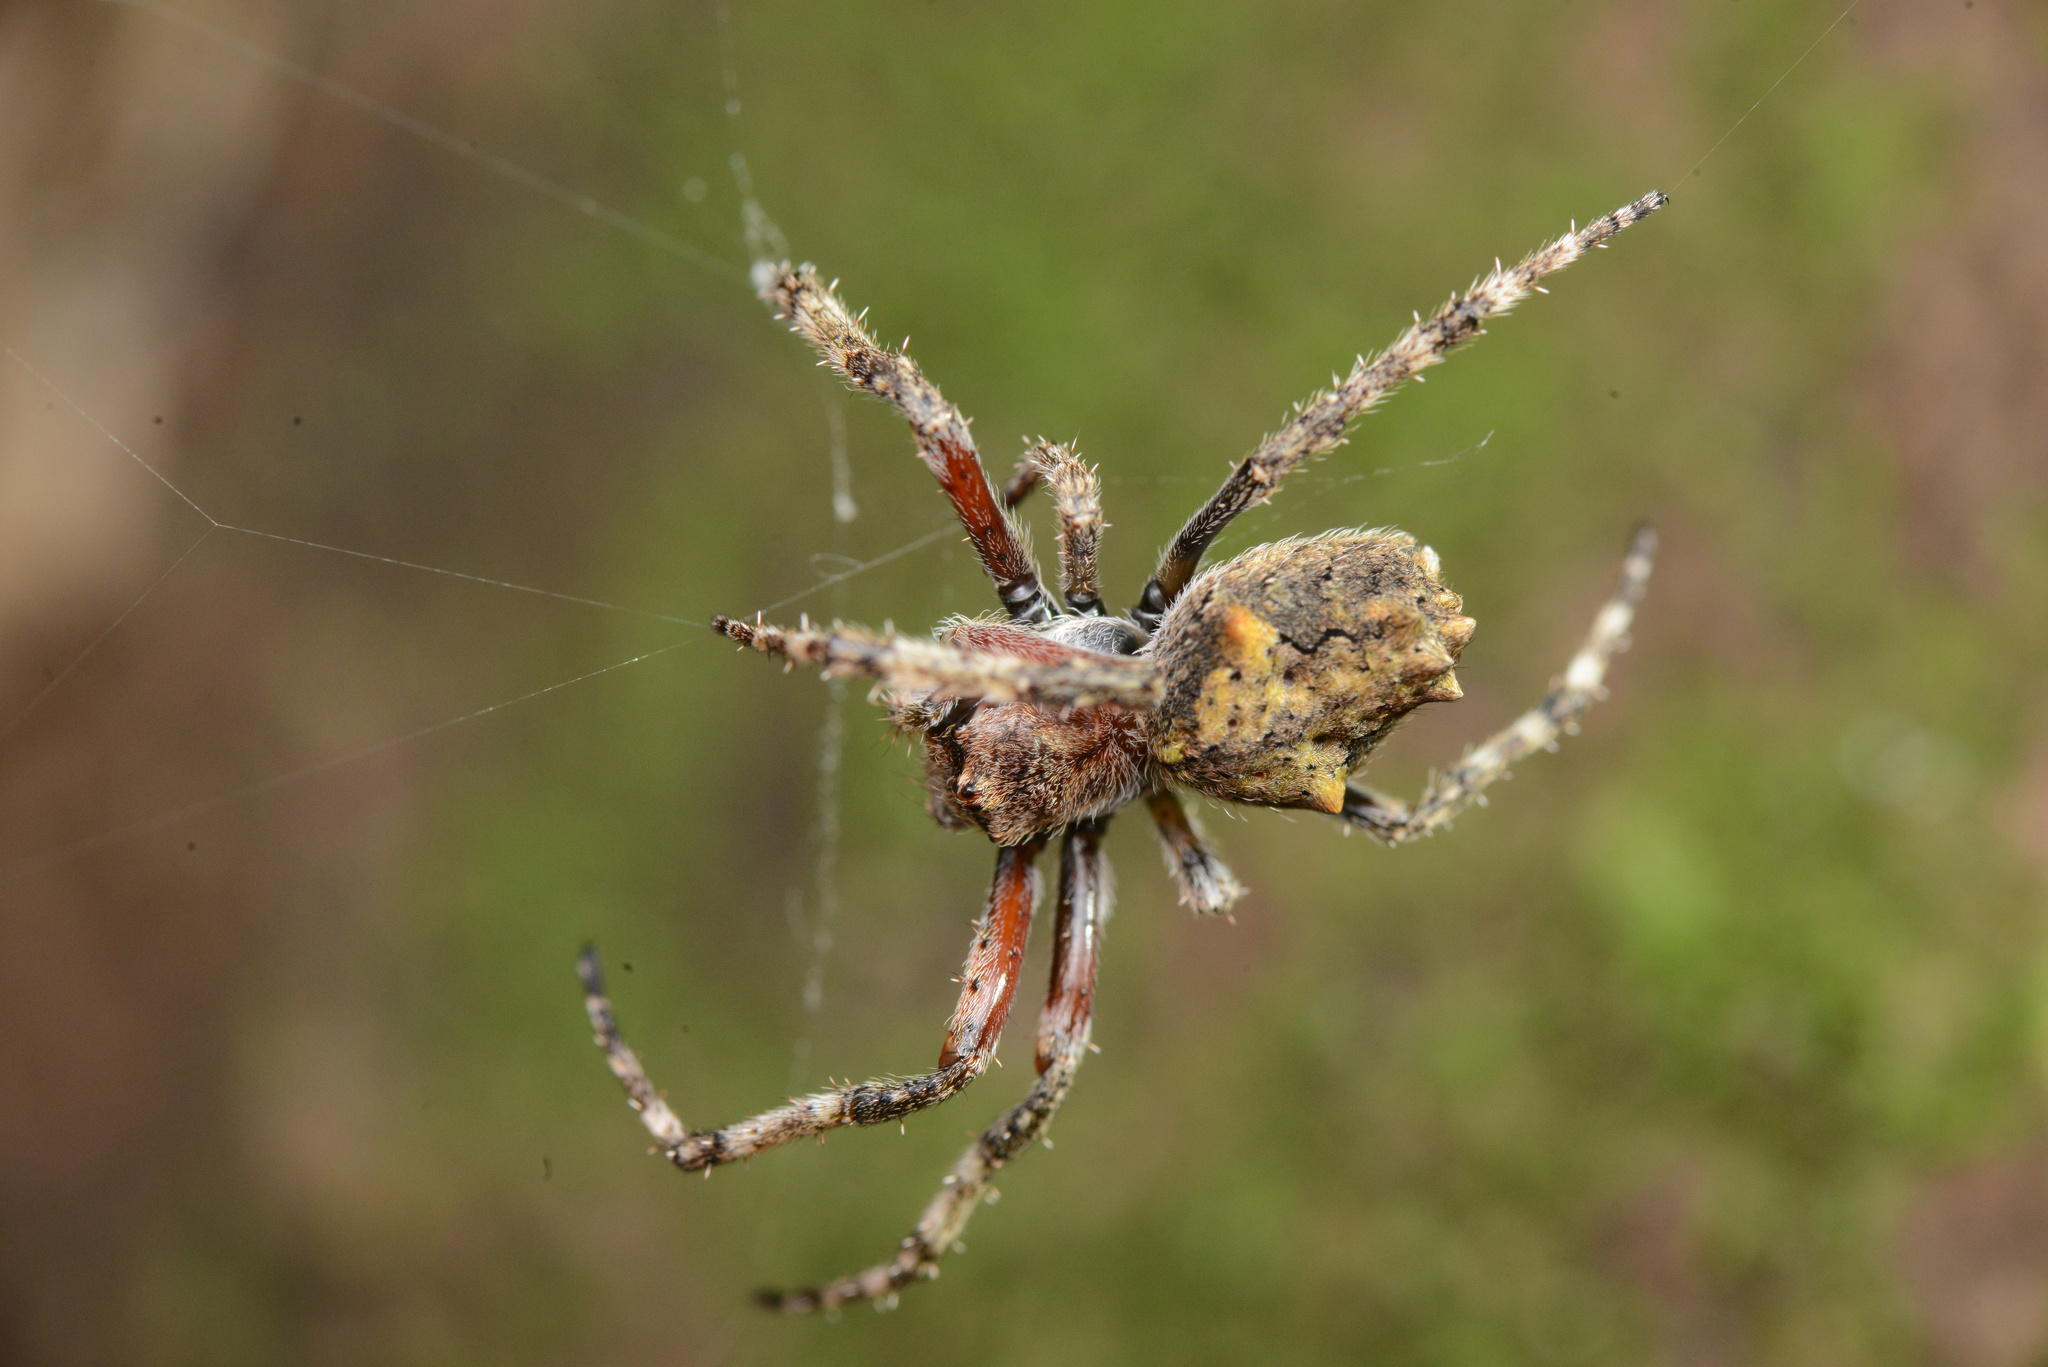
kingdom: Animalia
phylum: Arthropoda
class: Arachnida
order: Araneae
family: Araneidae
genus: Eriophora
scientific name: Eriophora pustulosa
